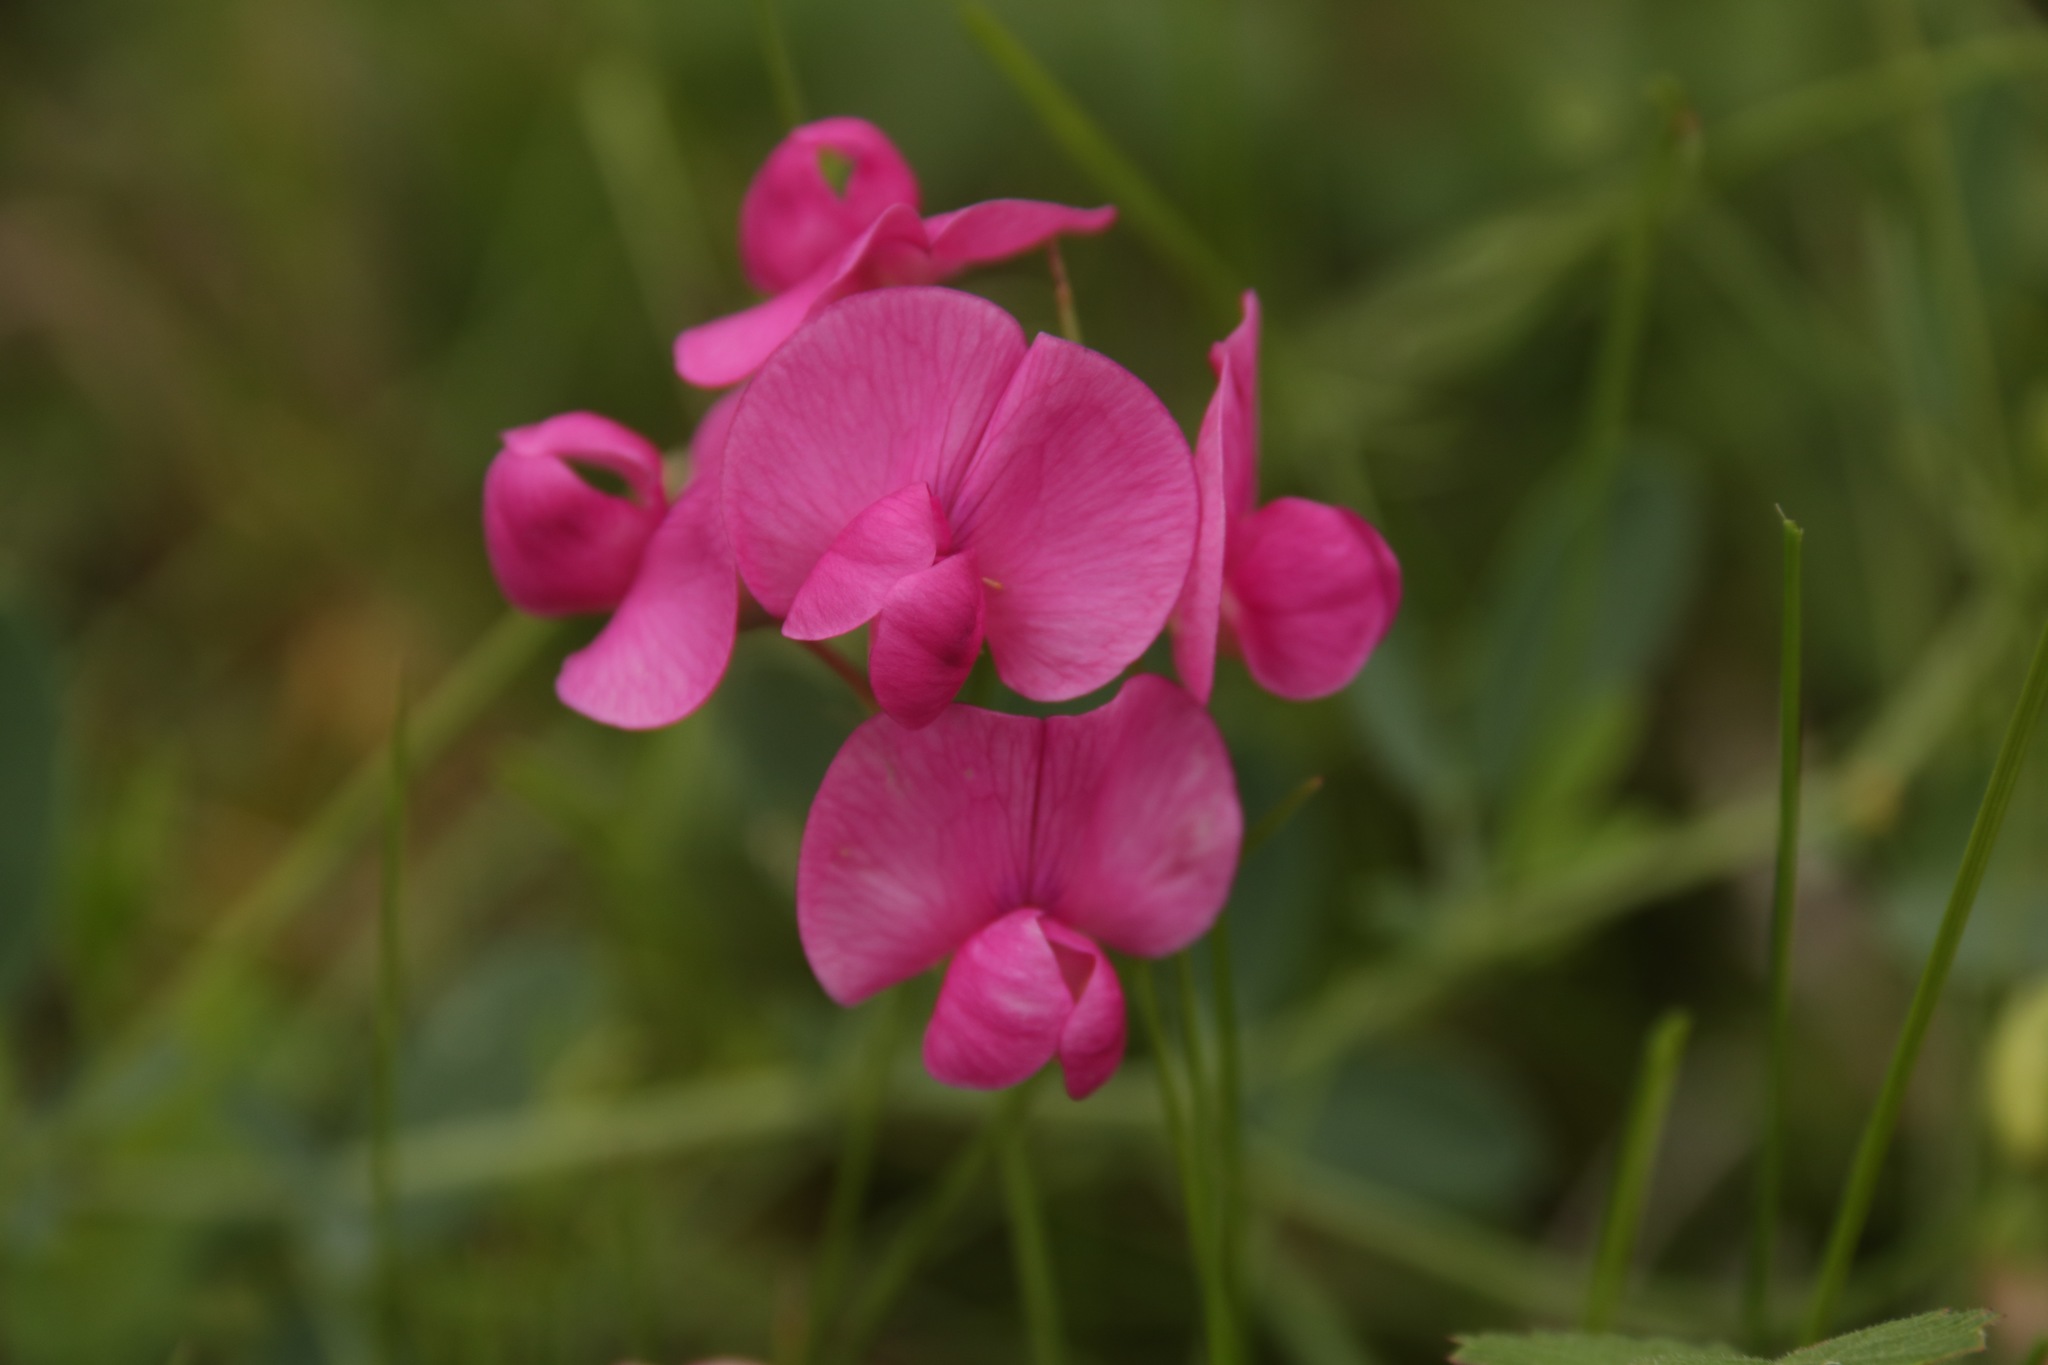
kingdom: Plantae
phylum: Tracheophyta
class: Magnoliopsida
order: Fabales
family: Fabaceae
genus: Lathyrus
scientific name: Lathyrus tuberosus
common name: Tuberous pea
